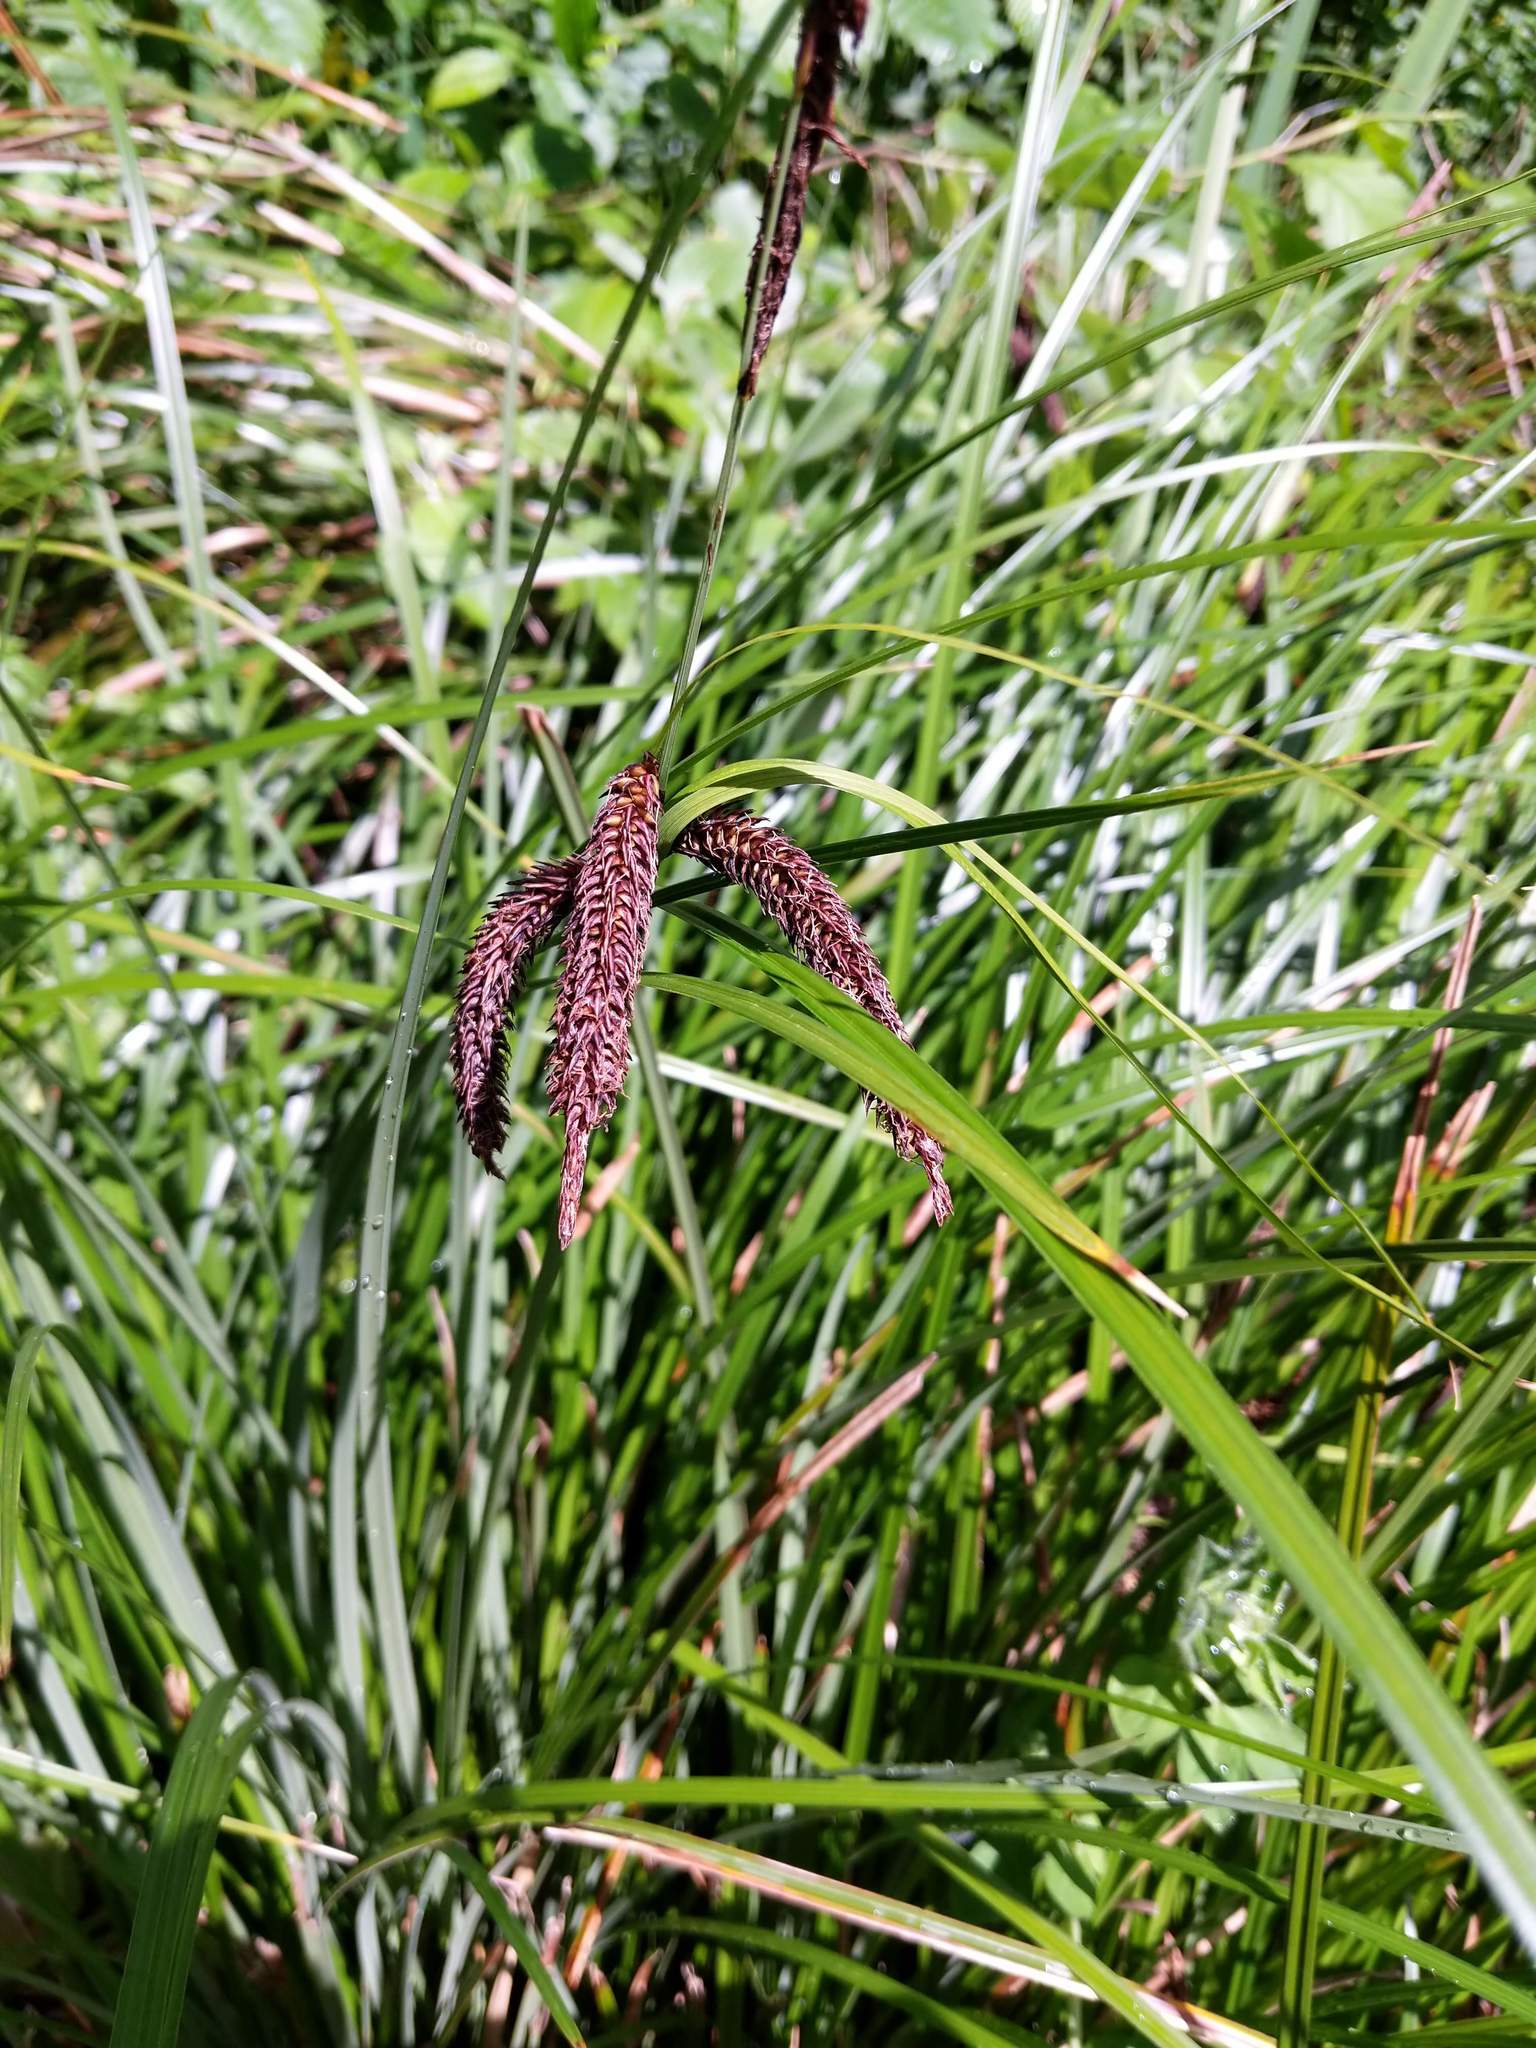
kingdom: Plantae
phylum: Tracheophyta
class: Liliopsida
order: Poales
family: Cyperaceae
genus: Carex
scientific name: Carex obnupta
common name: Slough sedge
